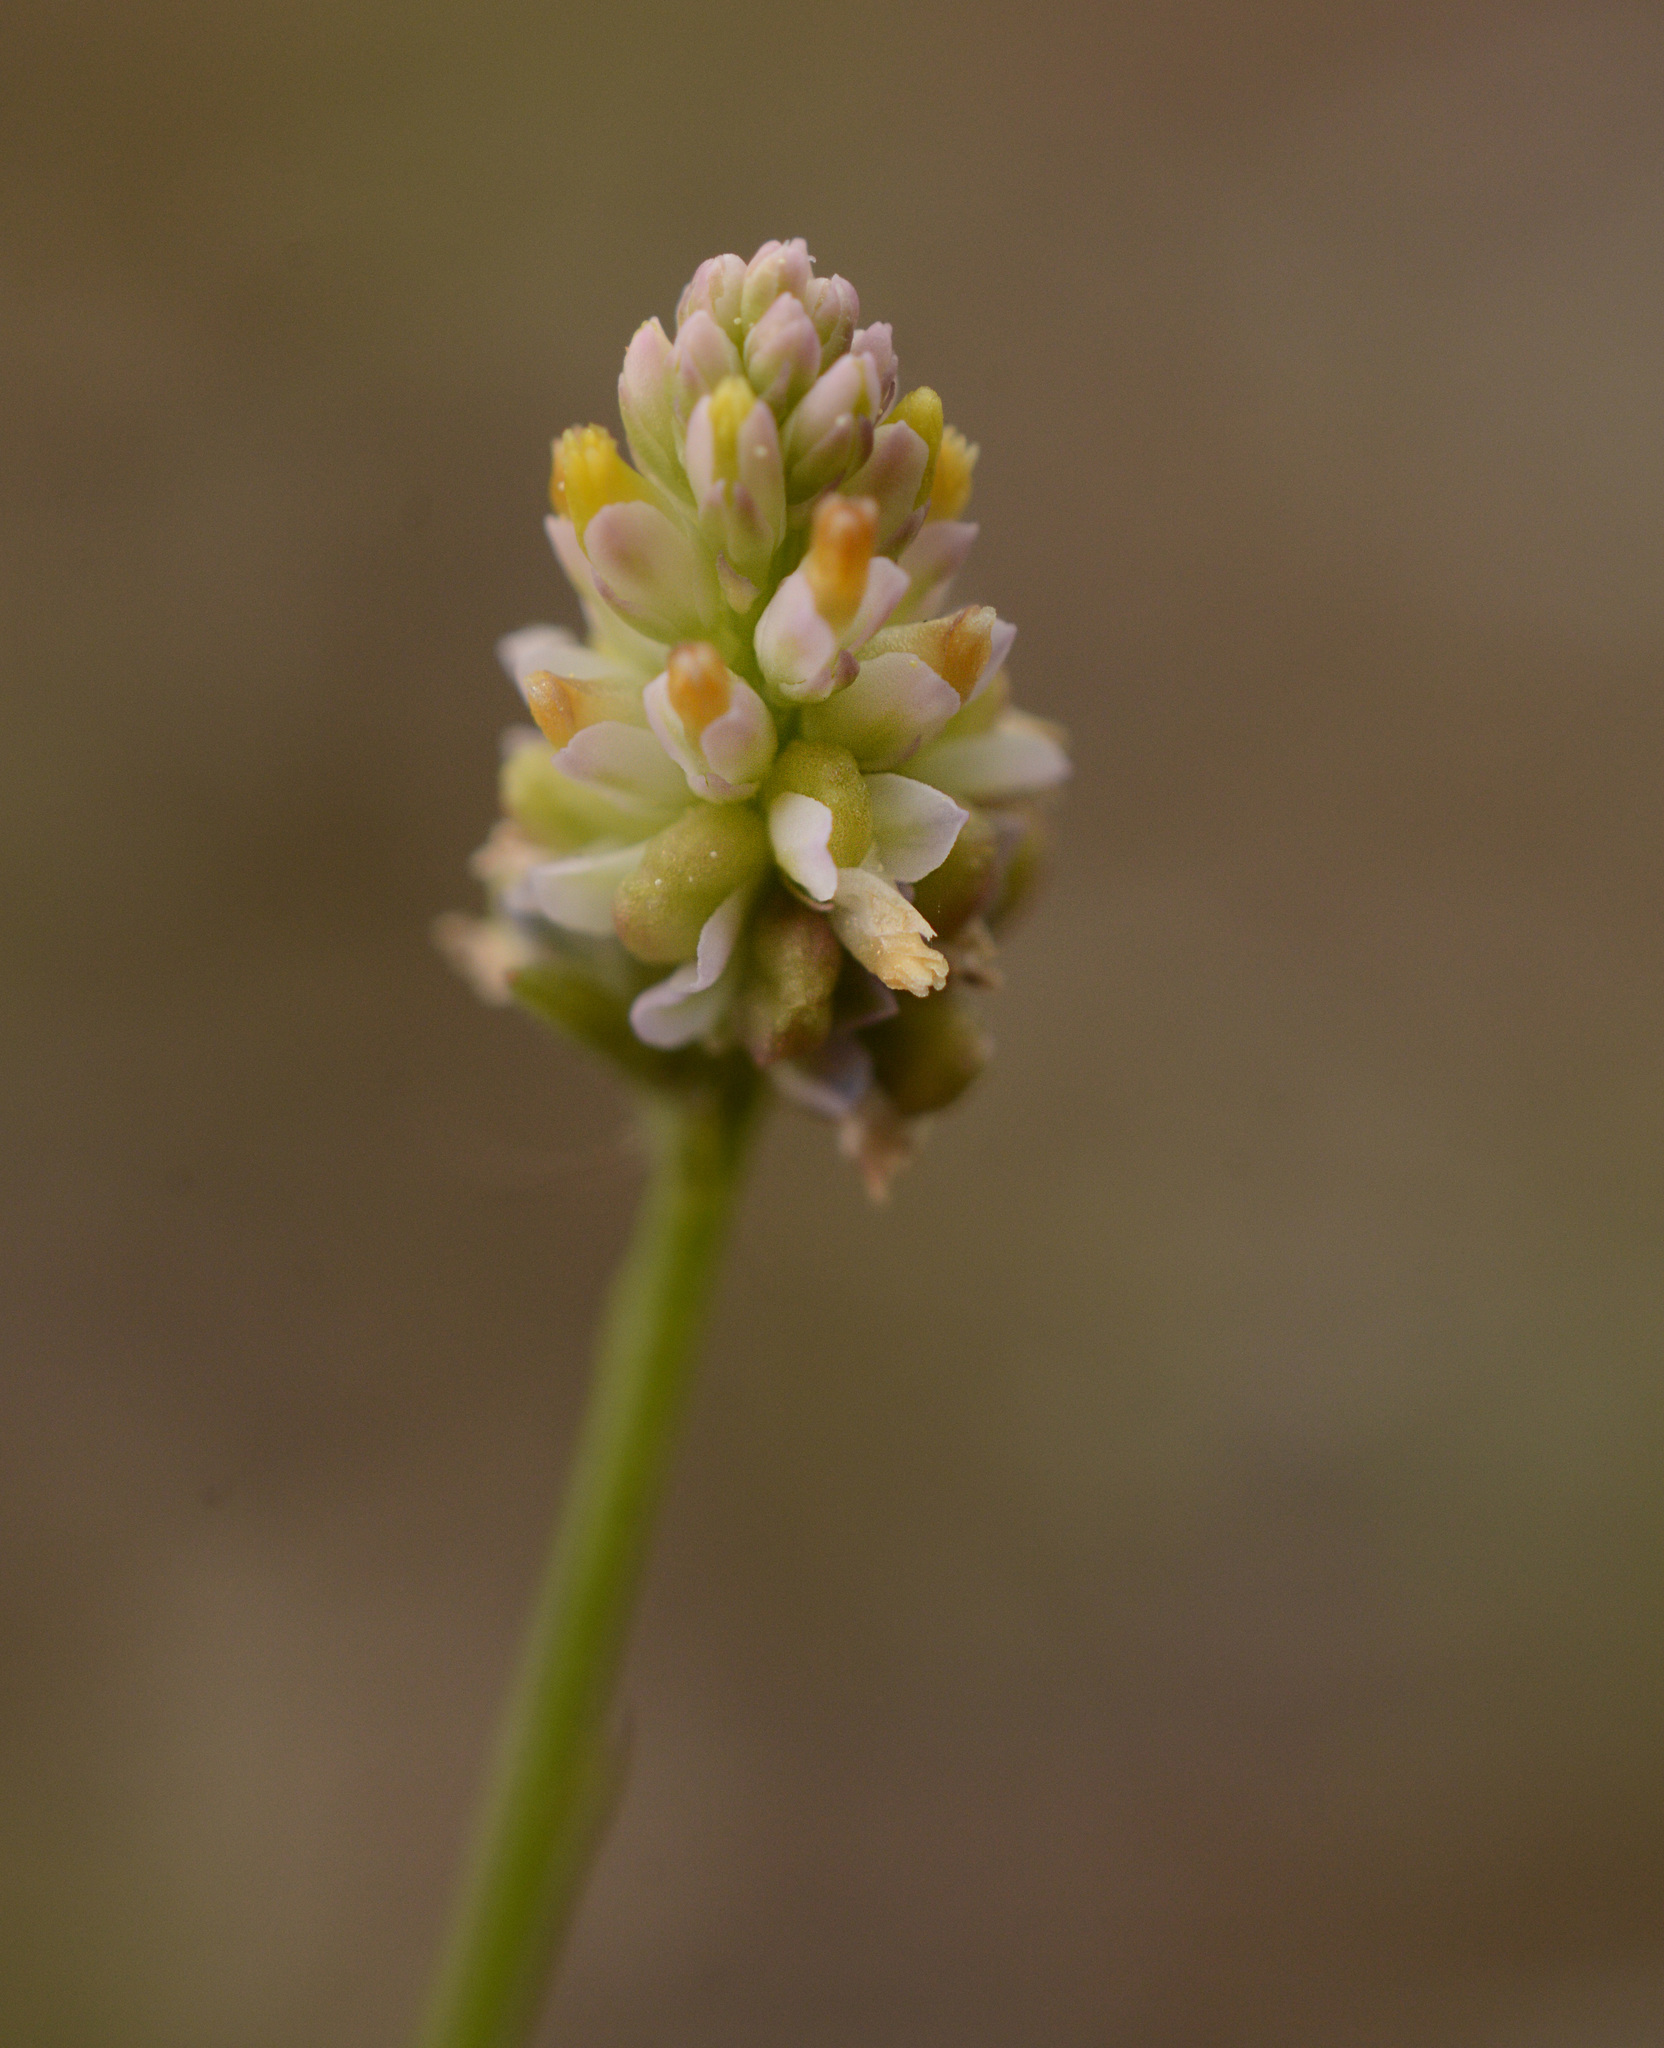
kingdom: Plantae
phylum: Tracheophyta
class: Magnoliopsida
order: Fabales
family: Polygalaceae
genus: Polygala
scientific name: Polygala setacea
